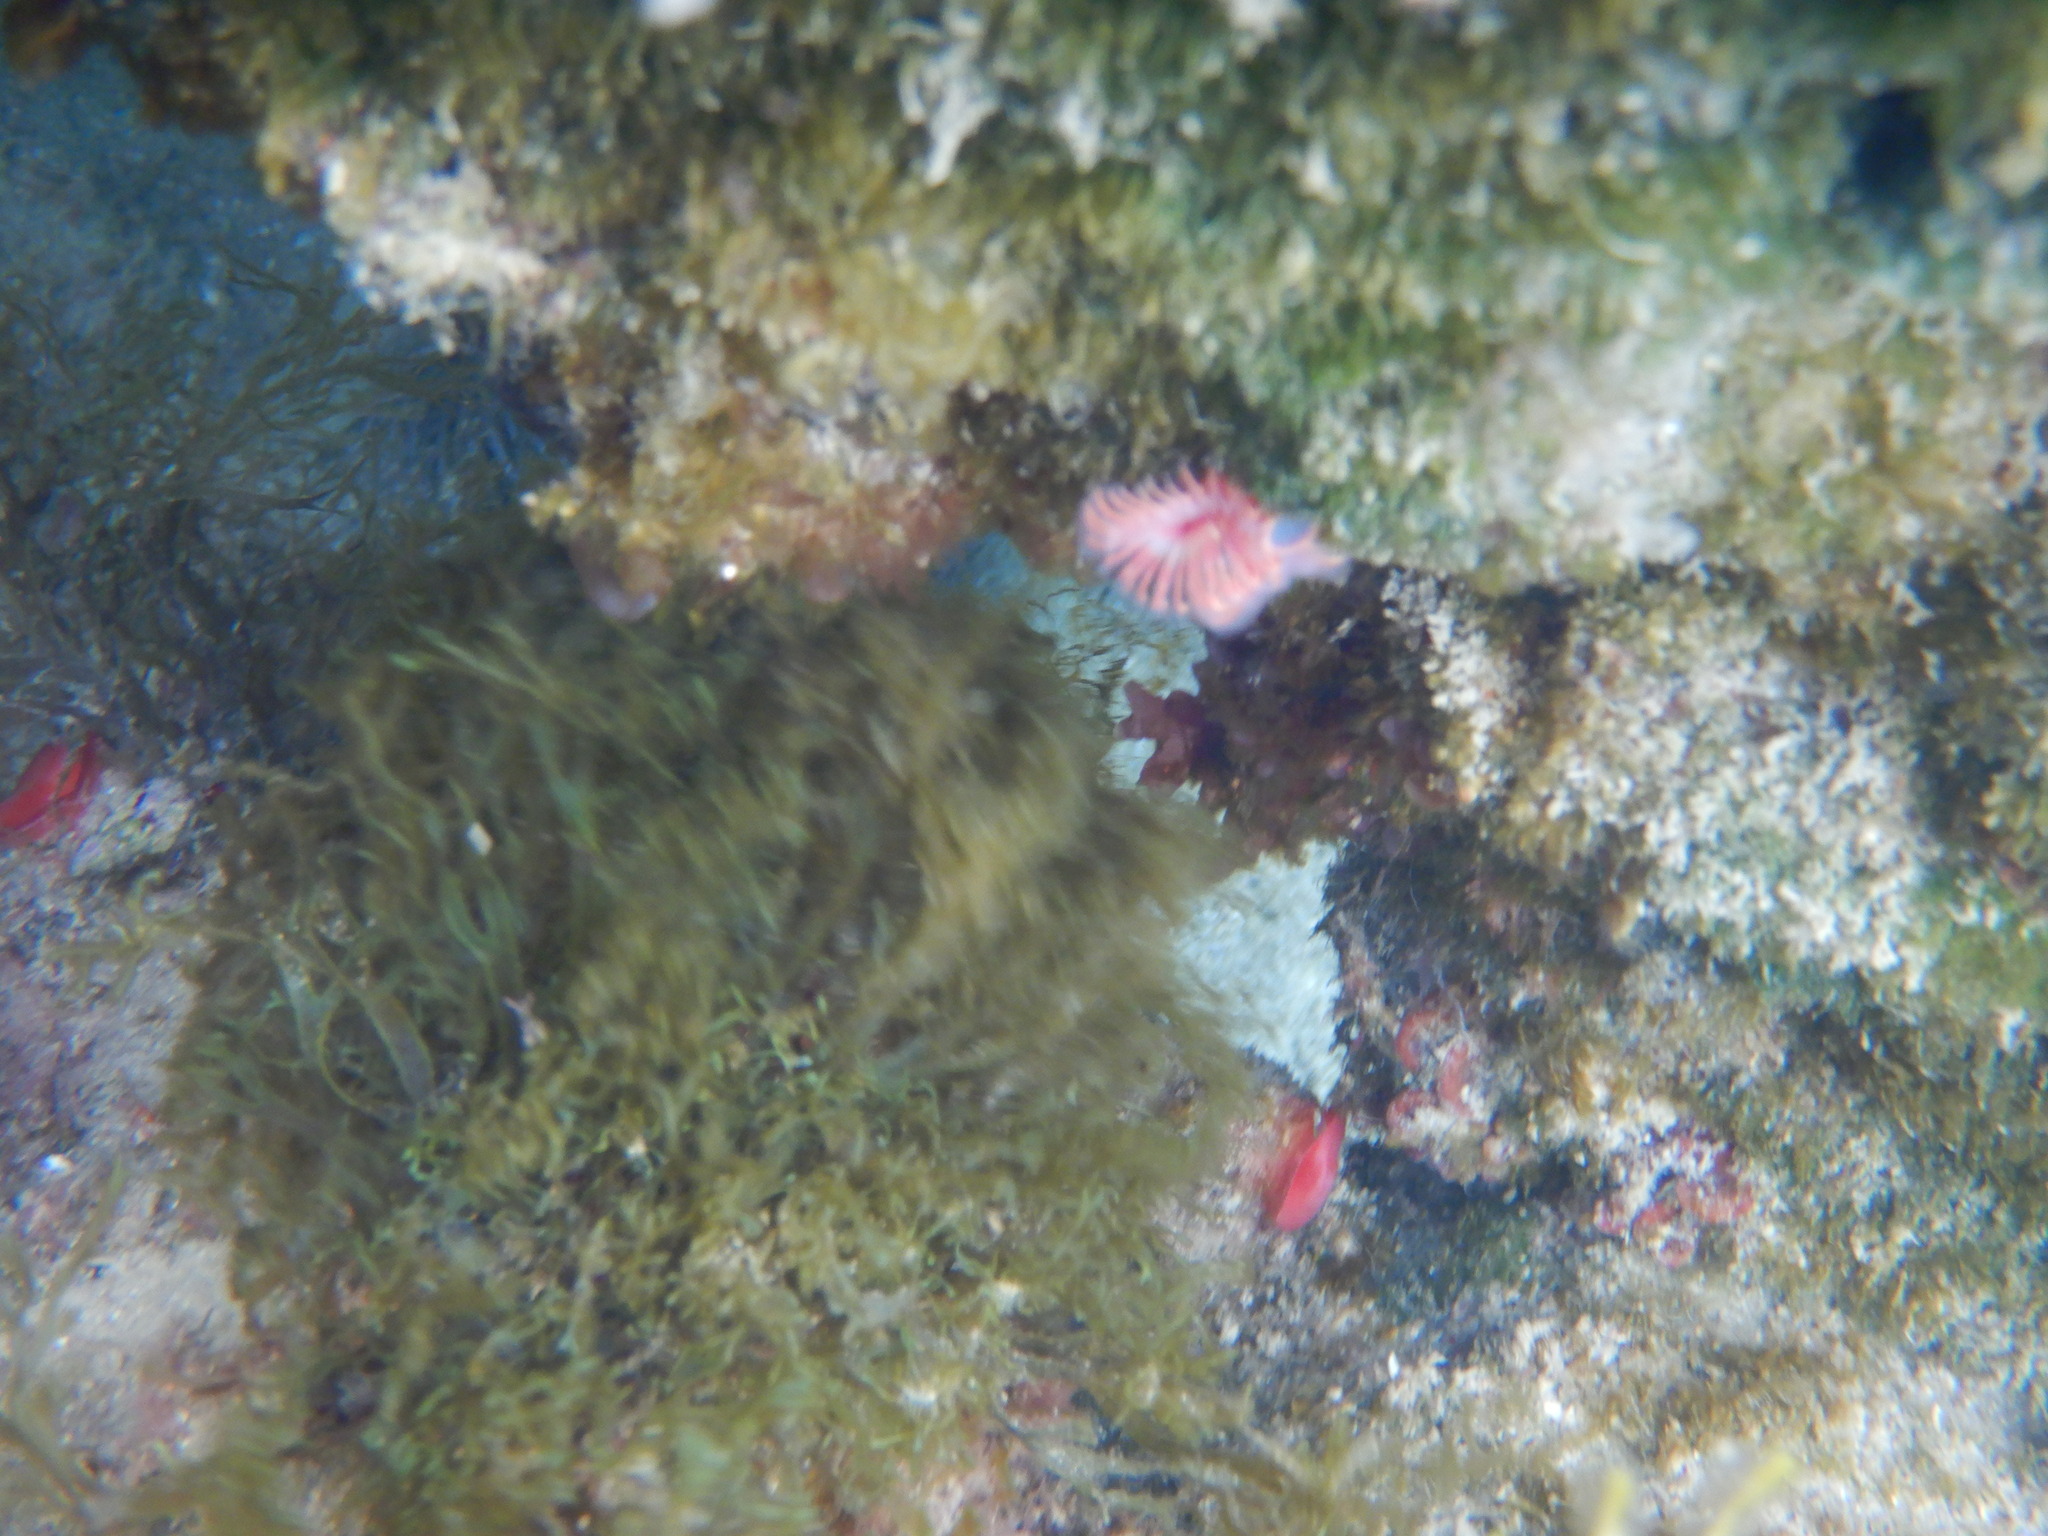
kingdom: Animalia
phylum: Annelida
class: Polychaeta
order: Sabellida
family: Serpulidae
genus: Serpula
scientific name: Serpula vermicularis
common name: Calcareous tubeworm
